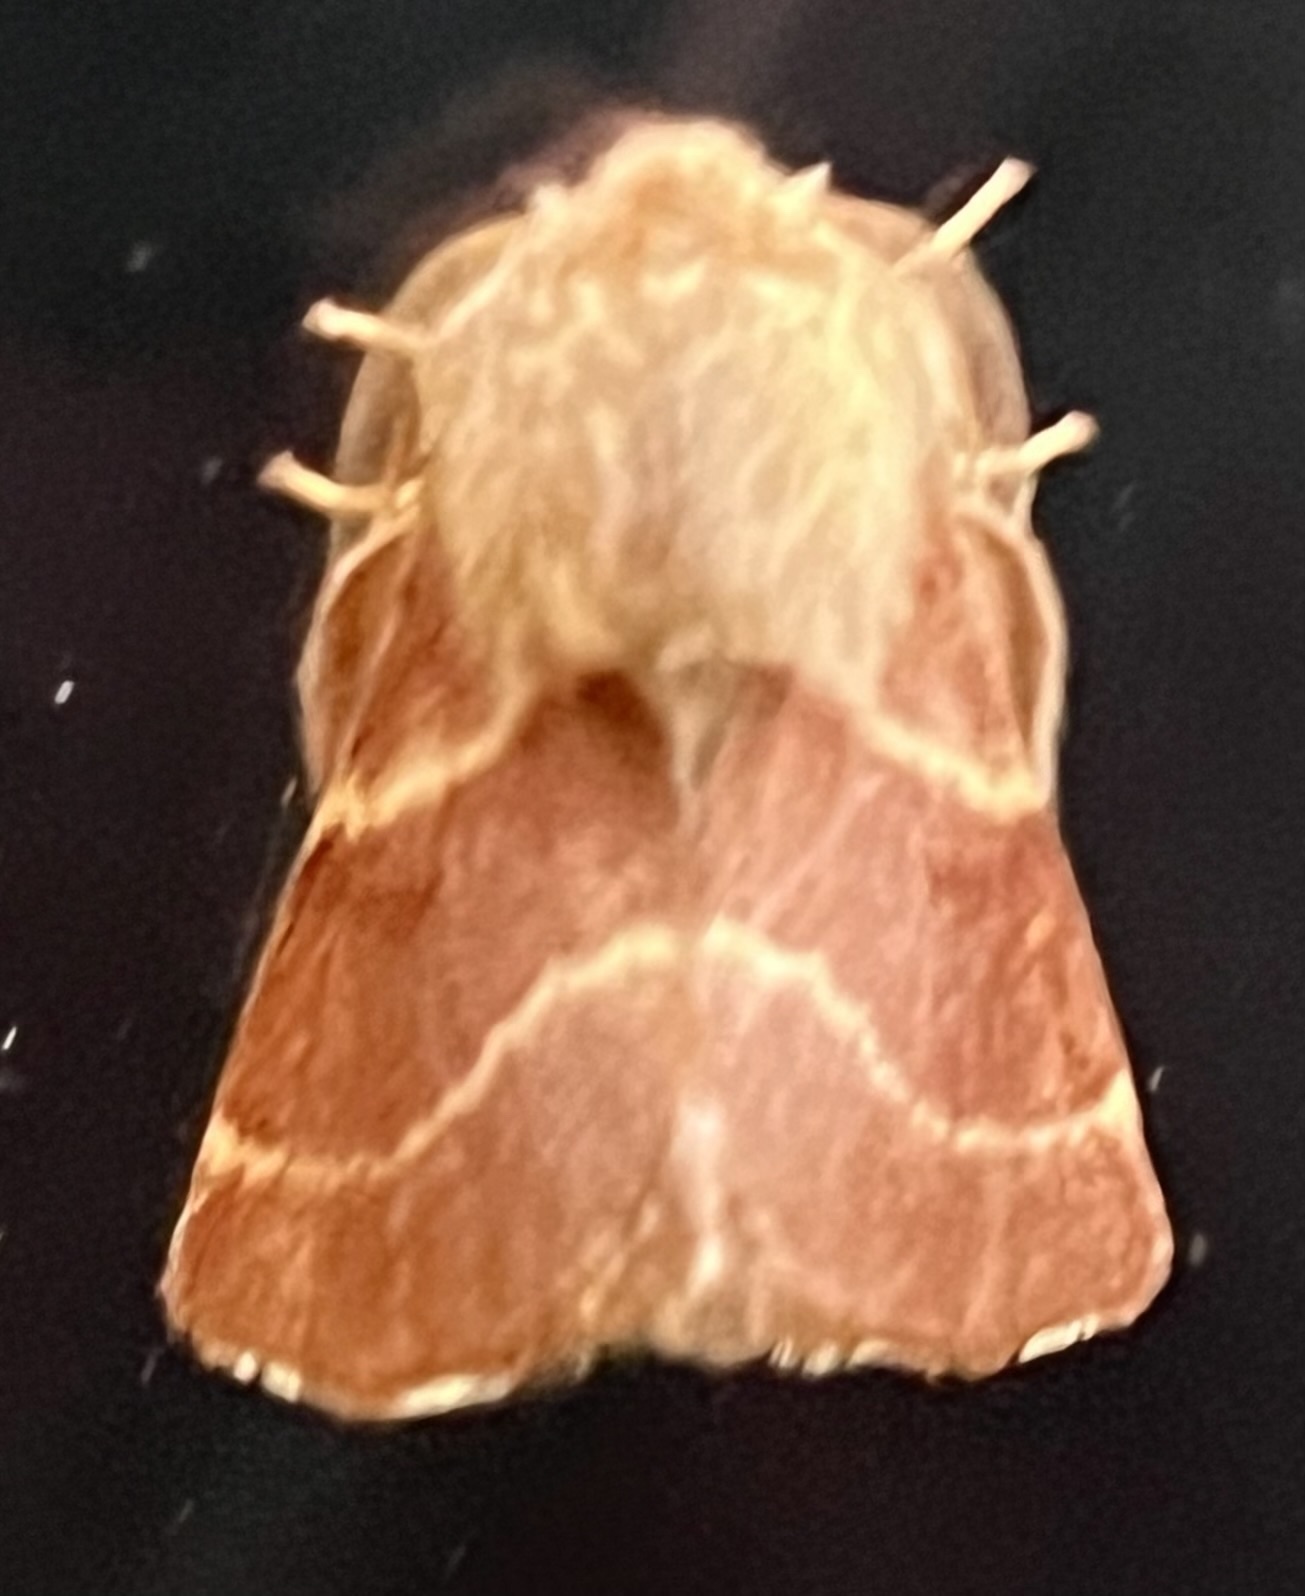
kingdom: Animalia
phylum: Arthropoda
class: Insecta
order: Lepidoptera
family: Lasiocampidae
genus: Malacosoma
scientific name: Malacosoma californica
